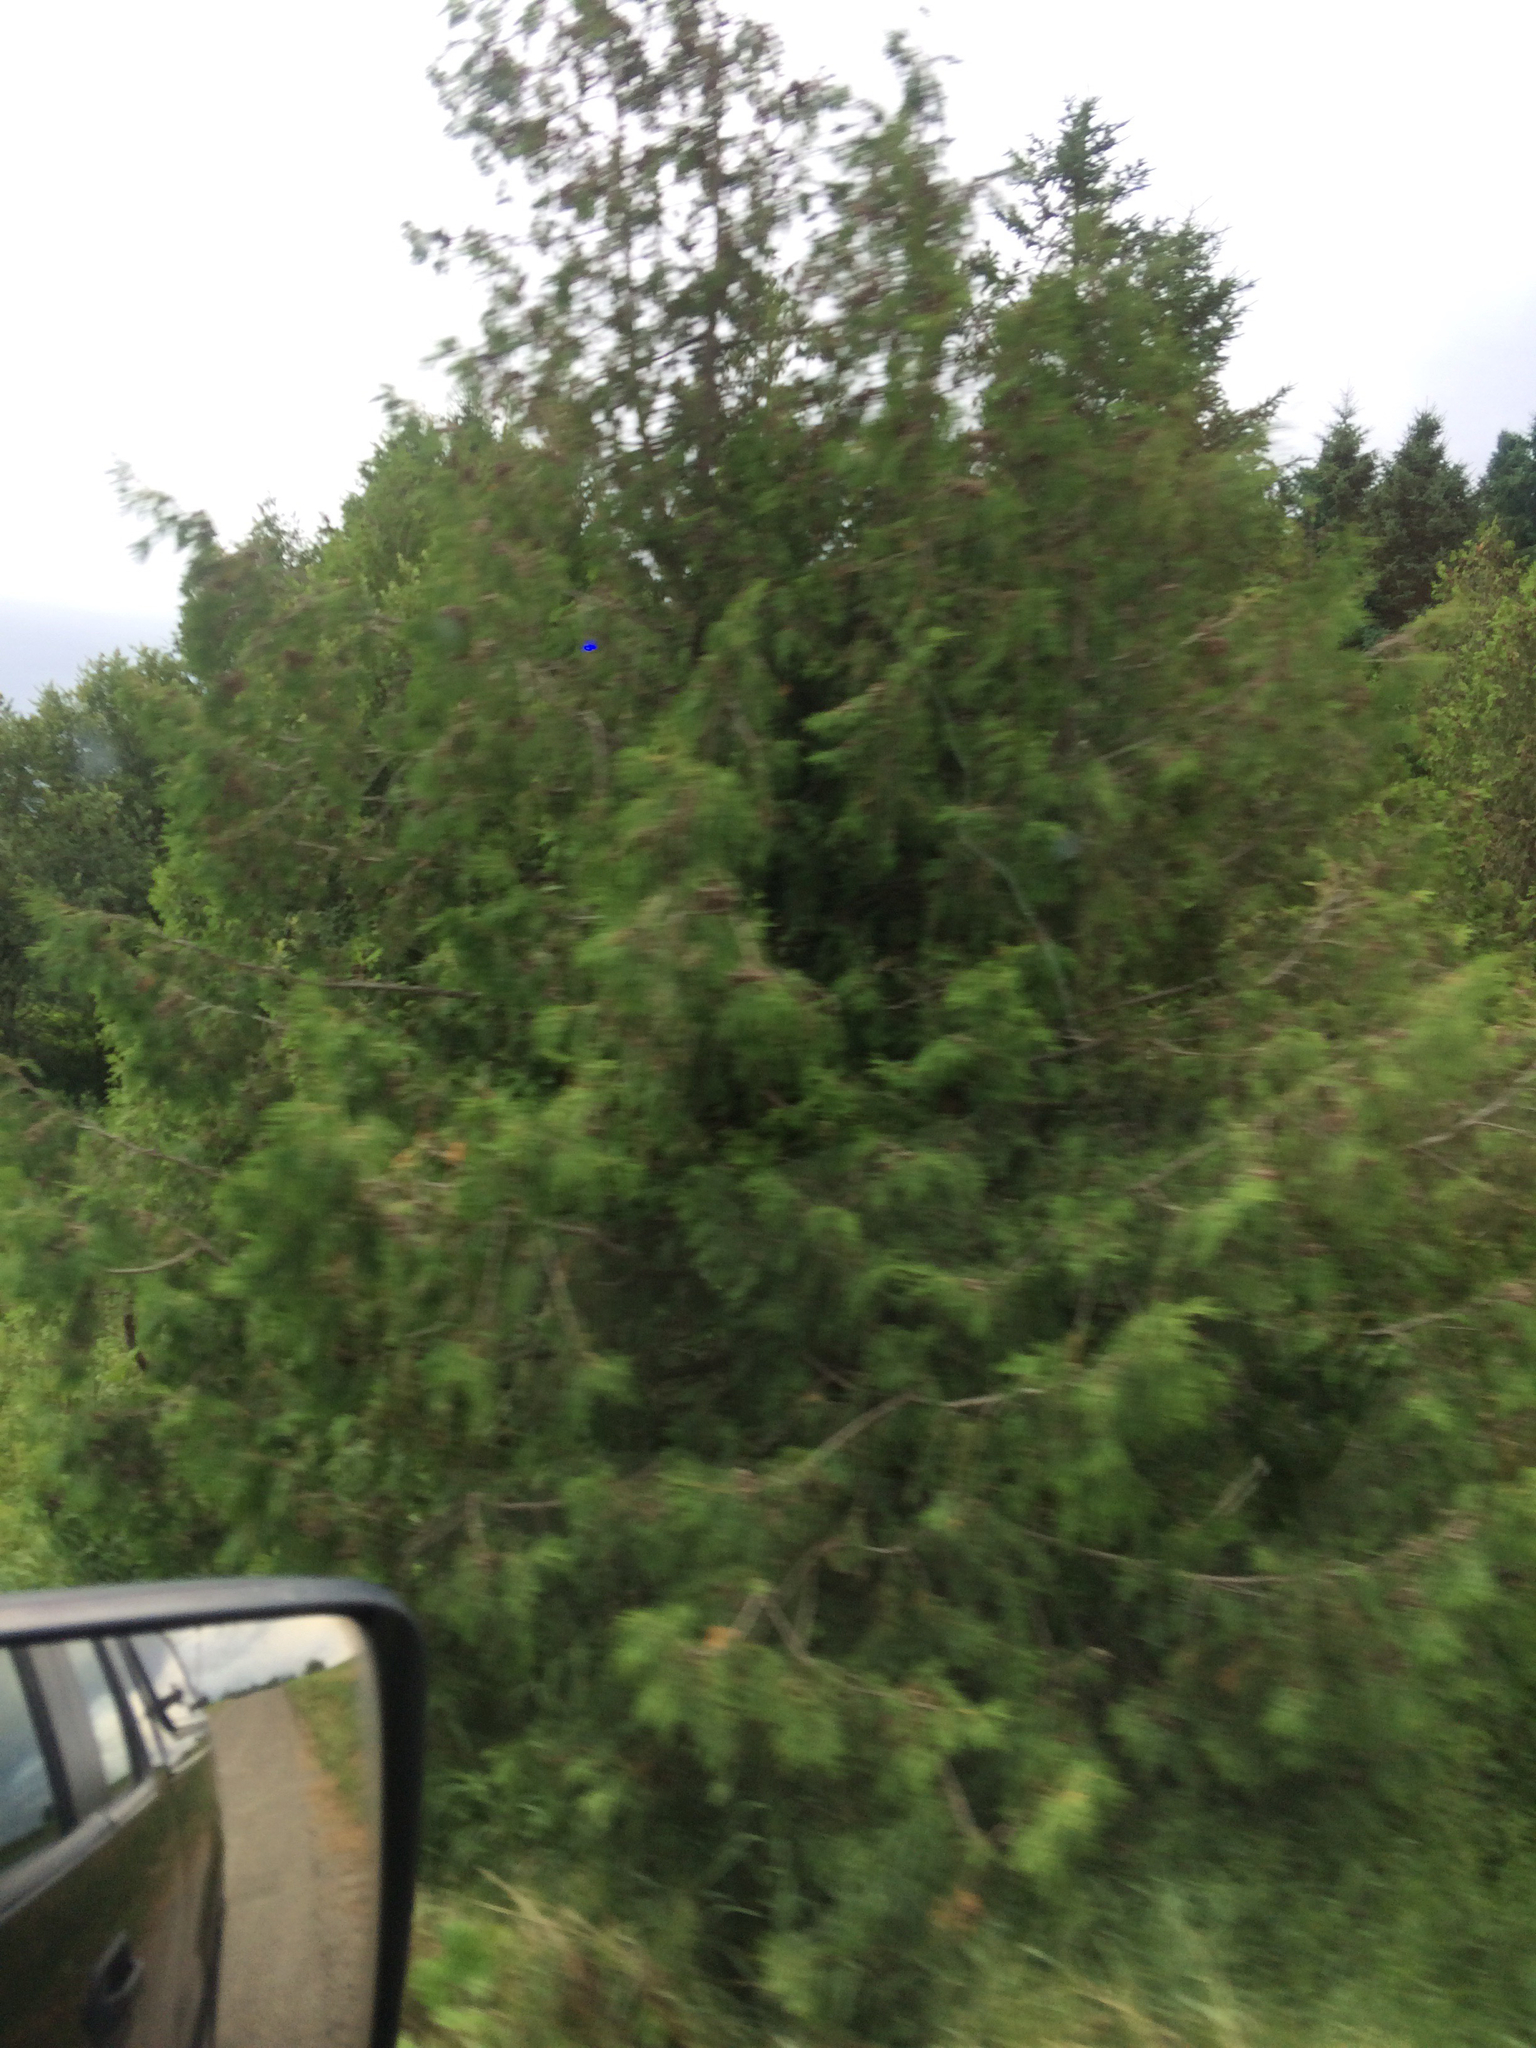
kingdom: Plantae
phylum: Tracheophyta
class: Pinopsida
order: Pinales
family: Cupressaceae
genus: Thuja
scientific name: Thuja occidentalis
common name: Northern white-cedar
